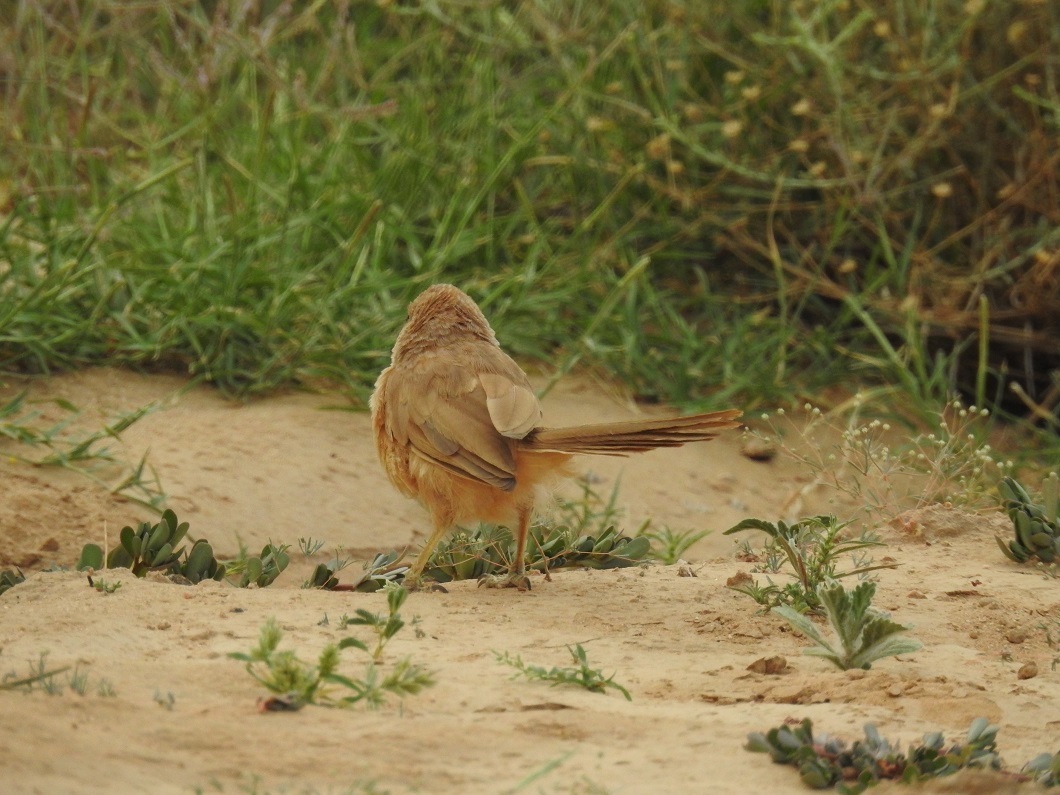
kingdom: Animalia
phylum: Chordata
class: Aves
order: Passeriformes
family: Leiothrichidae
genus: Turdoides
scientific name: Turdoides fulva
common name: Fulvous babbler
